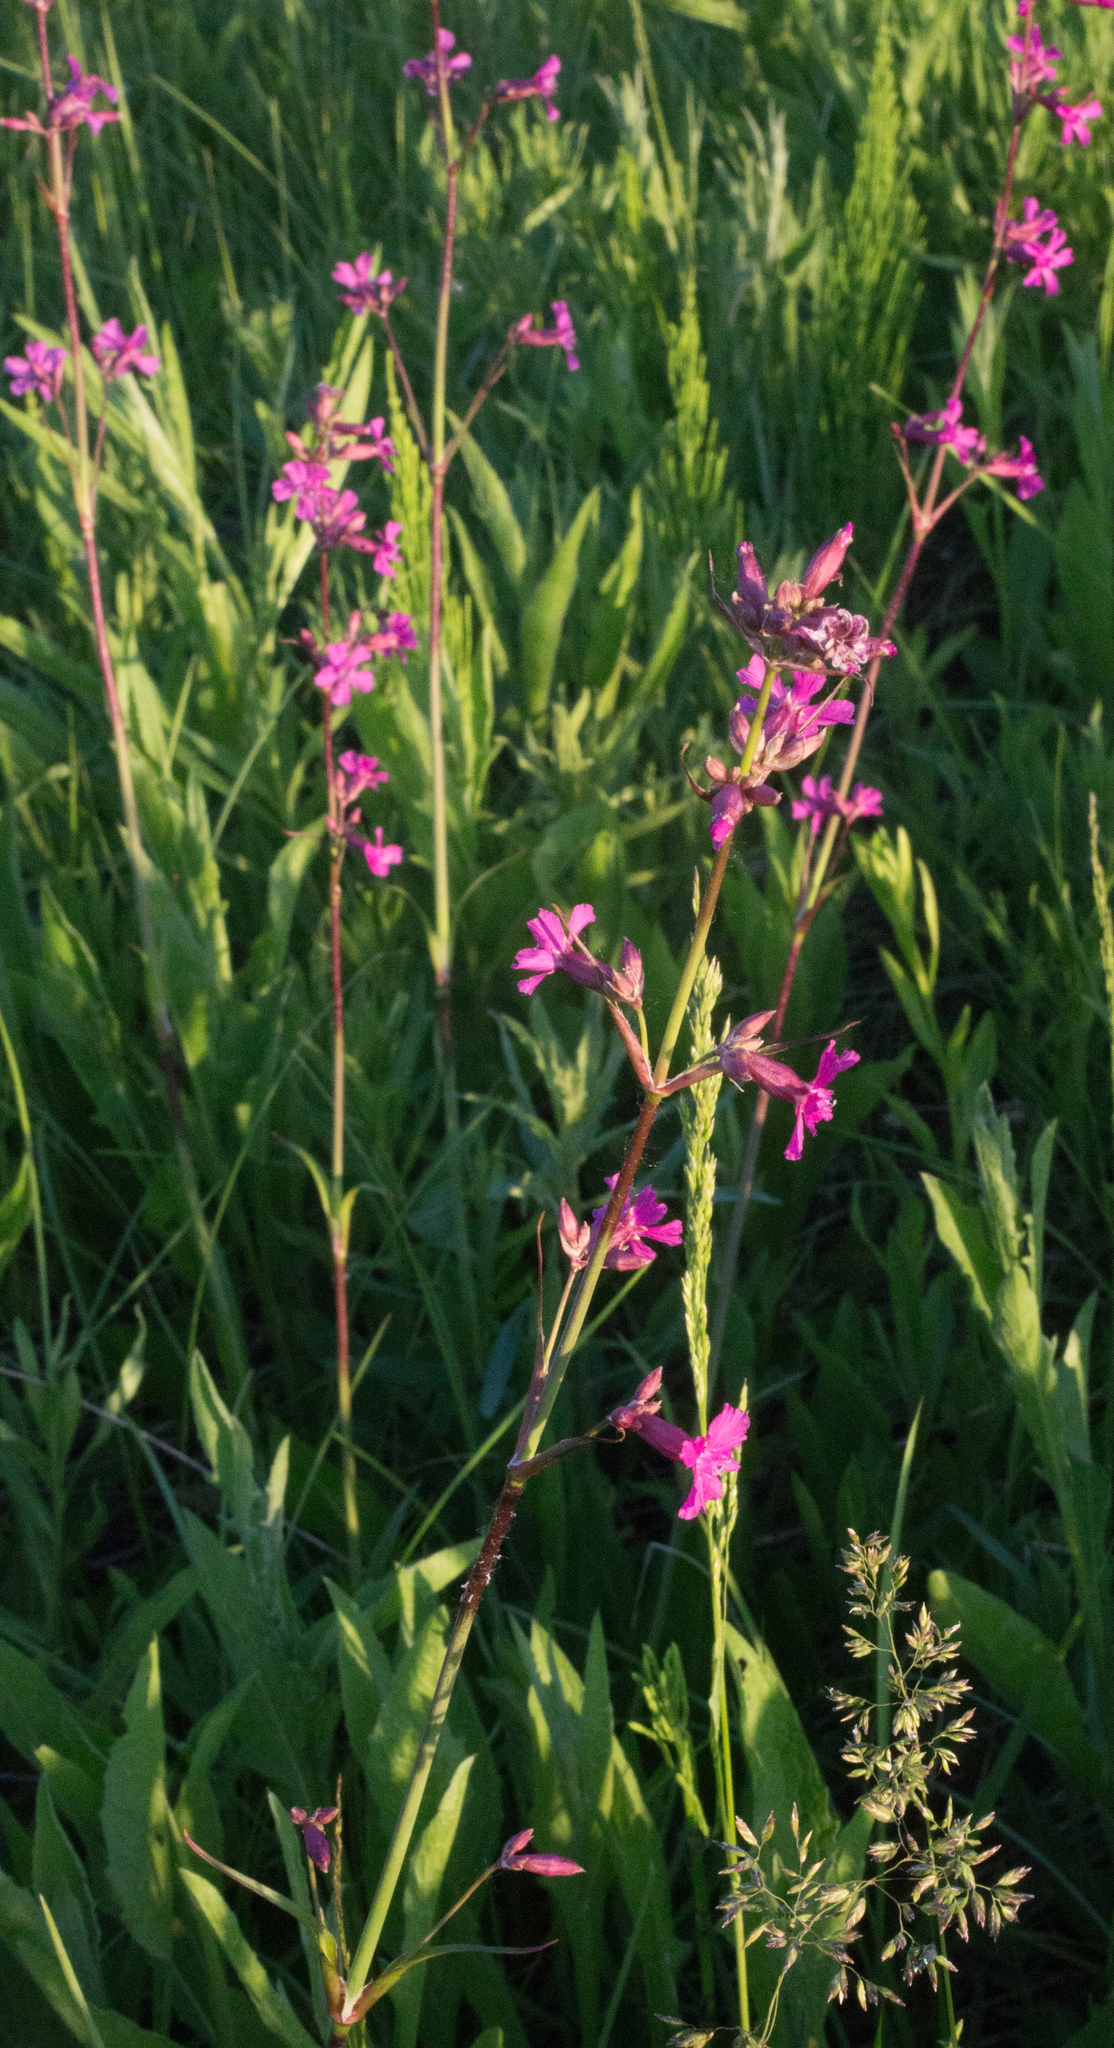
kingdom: Plantae
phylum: Tracheophyta
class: Magnoliopsida
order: Caryophyllales
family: Caryophyllaceae
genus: Viscaria
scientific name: Viscaria vulgaris
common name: Clammy campion
